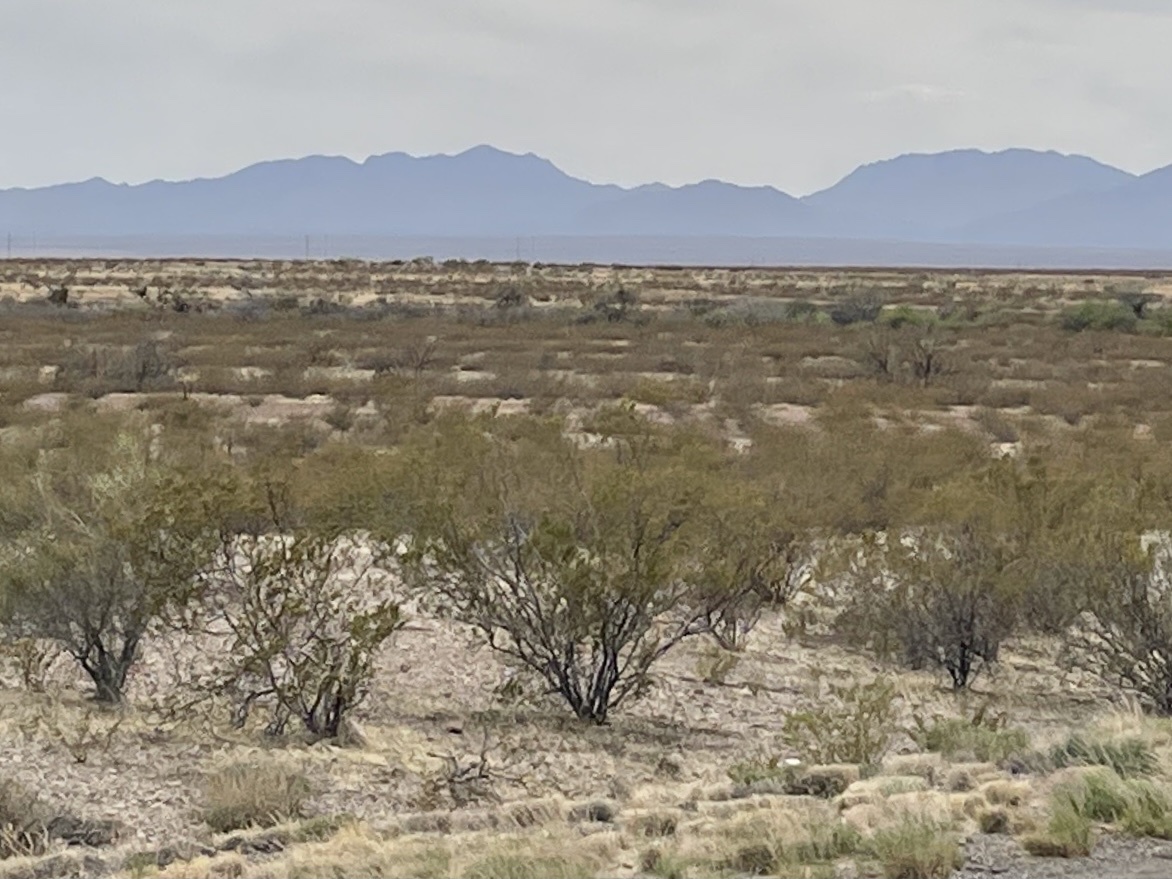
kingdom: Plantae
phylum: Tracheophyta
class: Magnoliopsida
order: Zygophyllales
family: Zygophyllaceae
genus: Larrea
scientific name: Larrea tridentata
